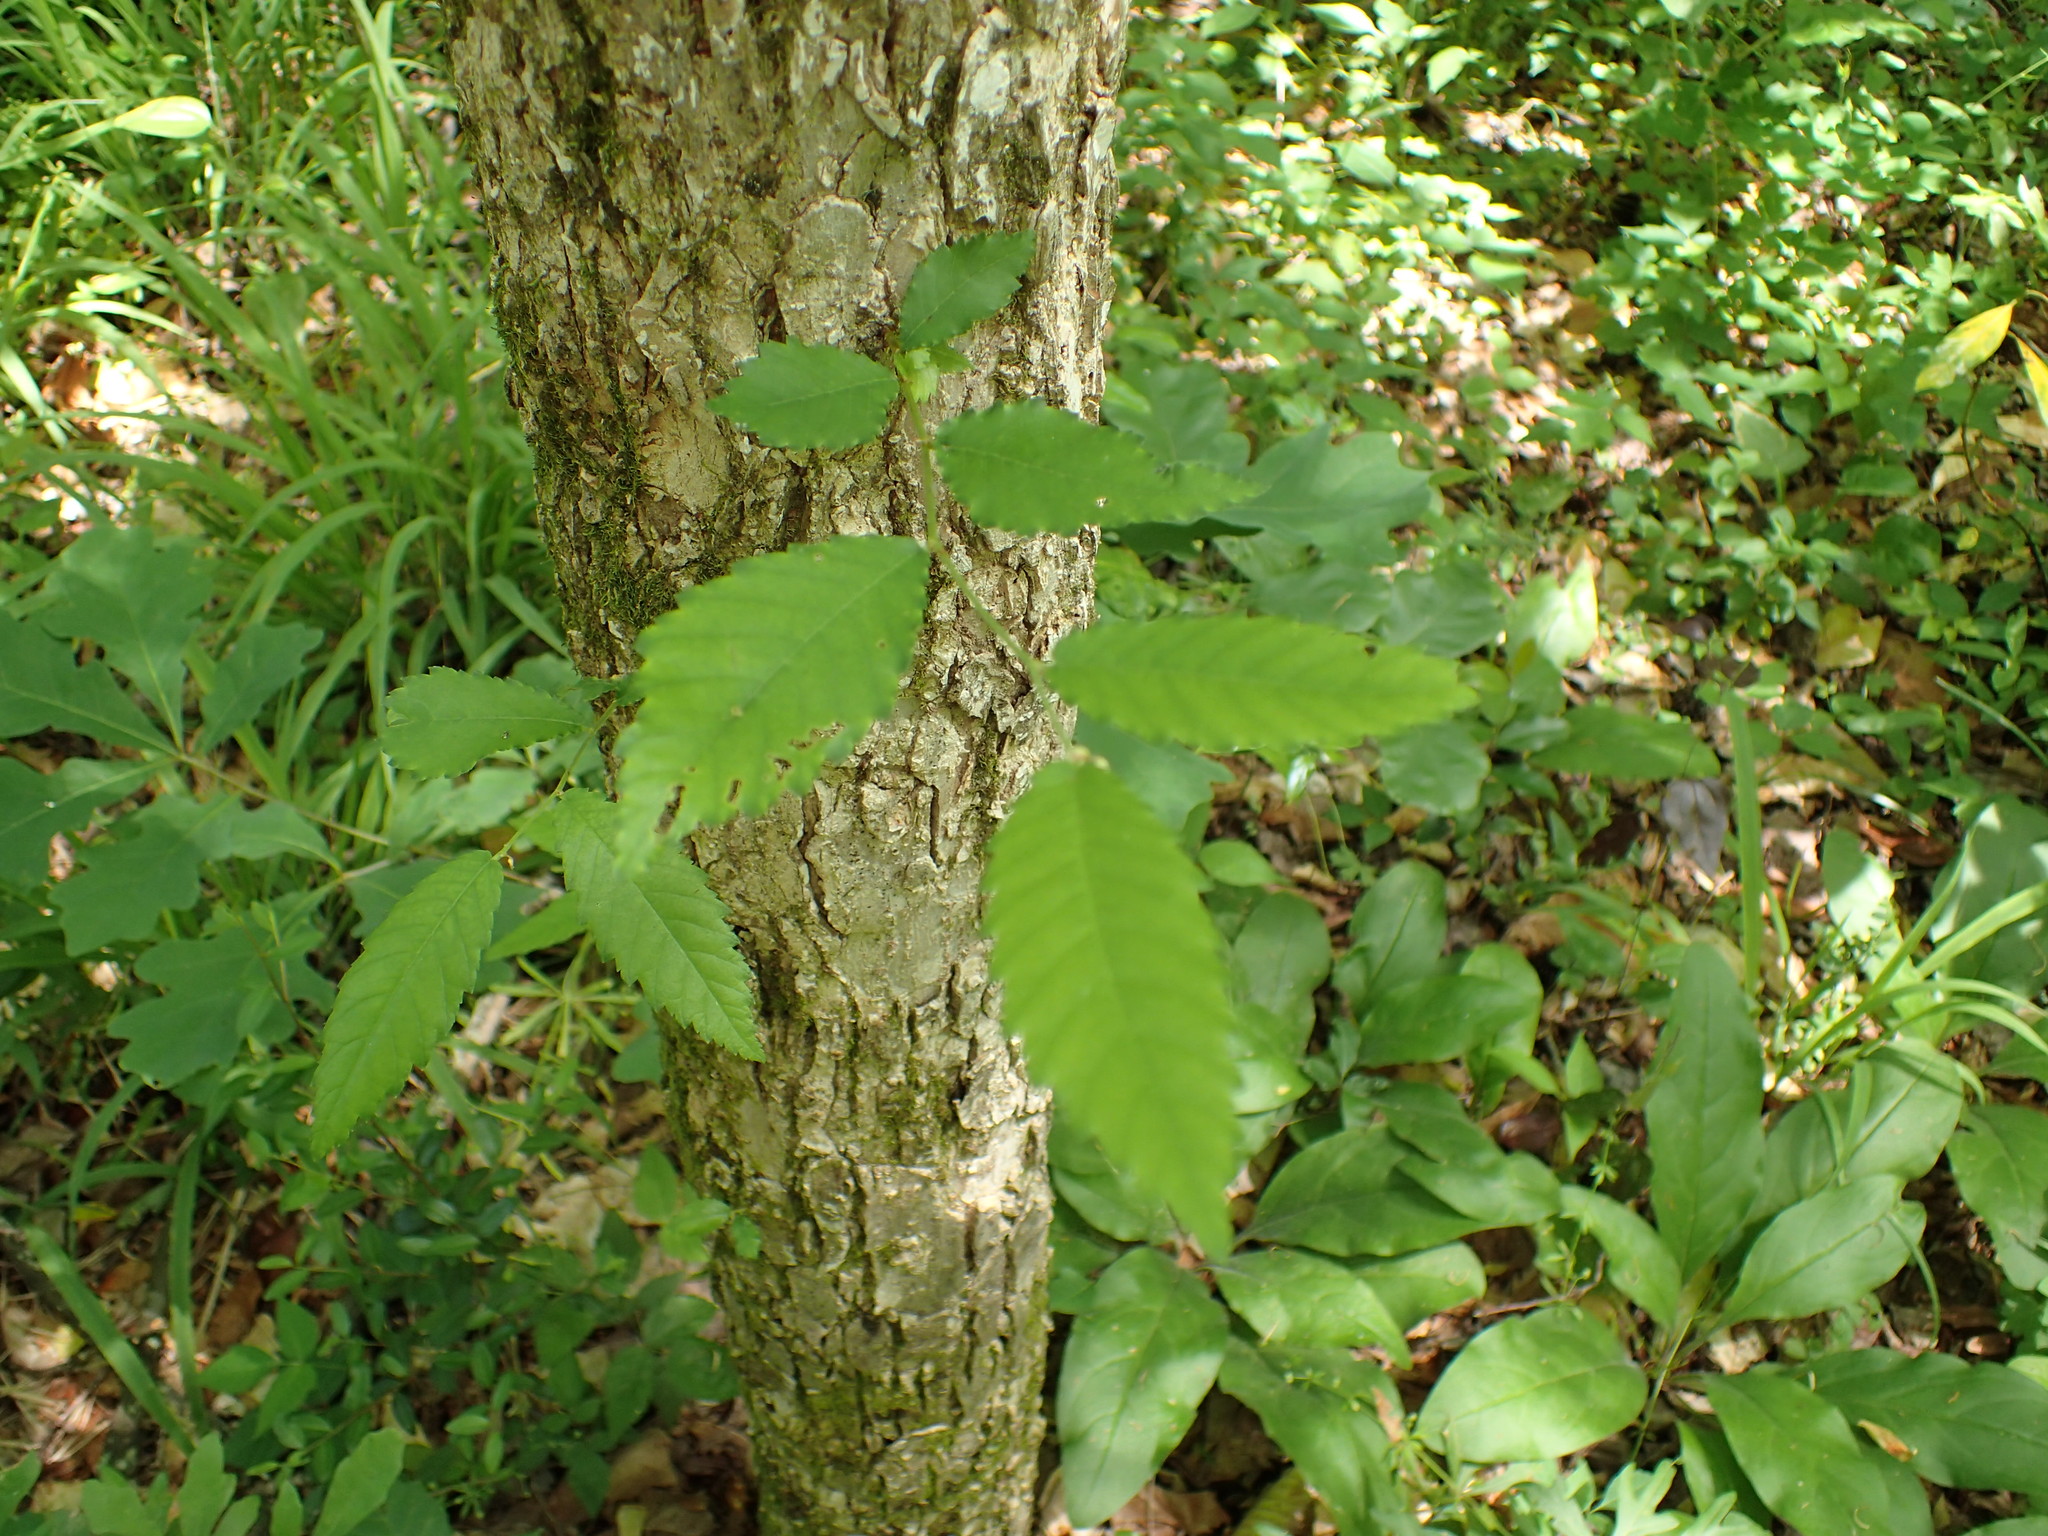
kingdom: Plantae
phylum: Tracheophyta
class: Magnoliopsida
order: Rosales
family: Ulmaceae
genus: Ulmus
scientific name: Ulmus alata
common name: Winged elm
